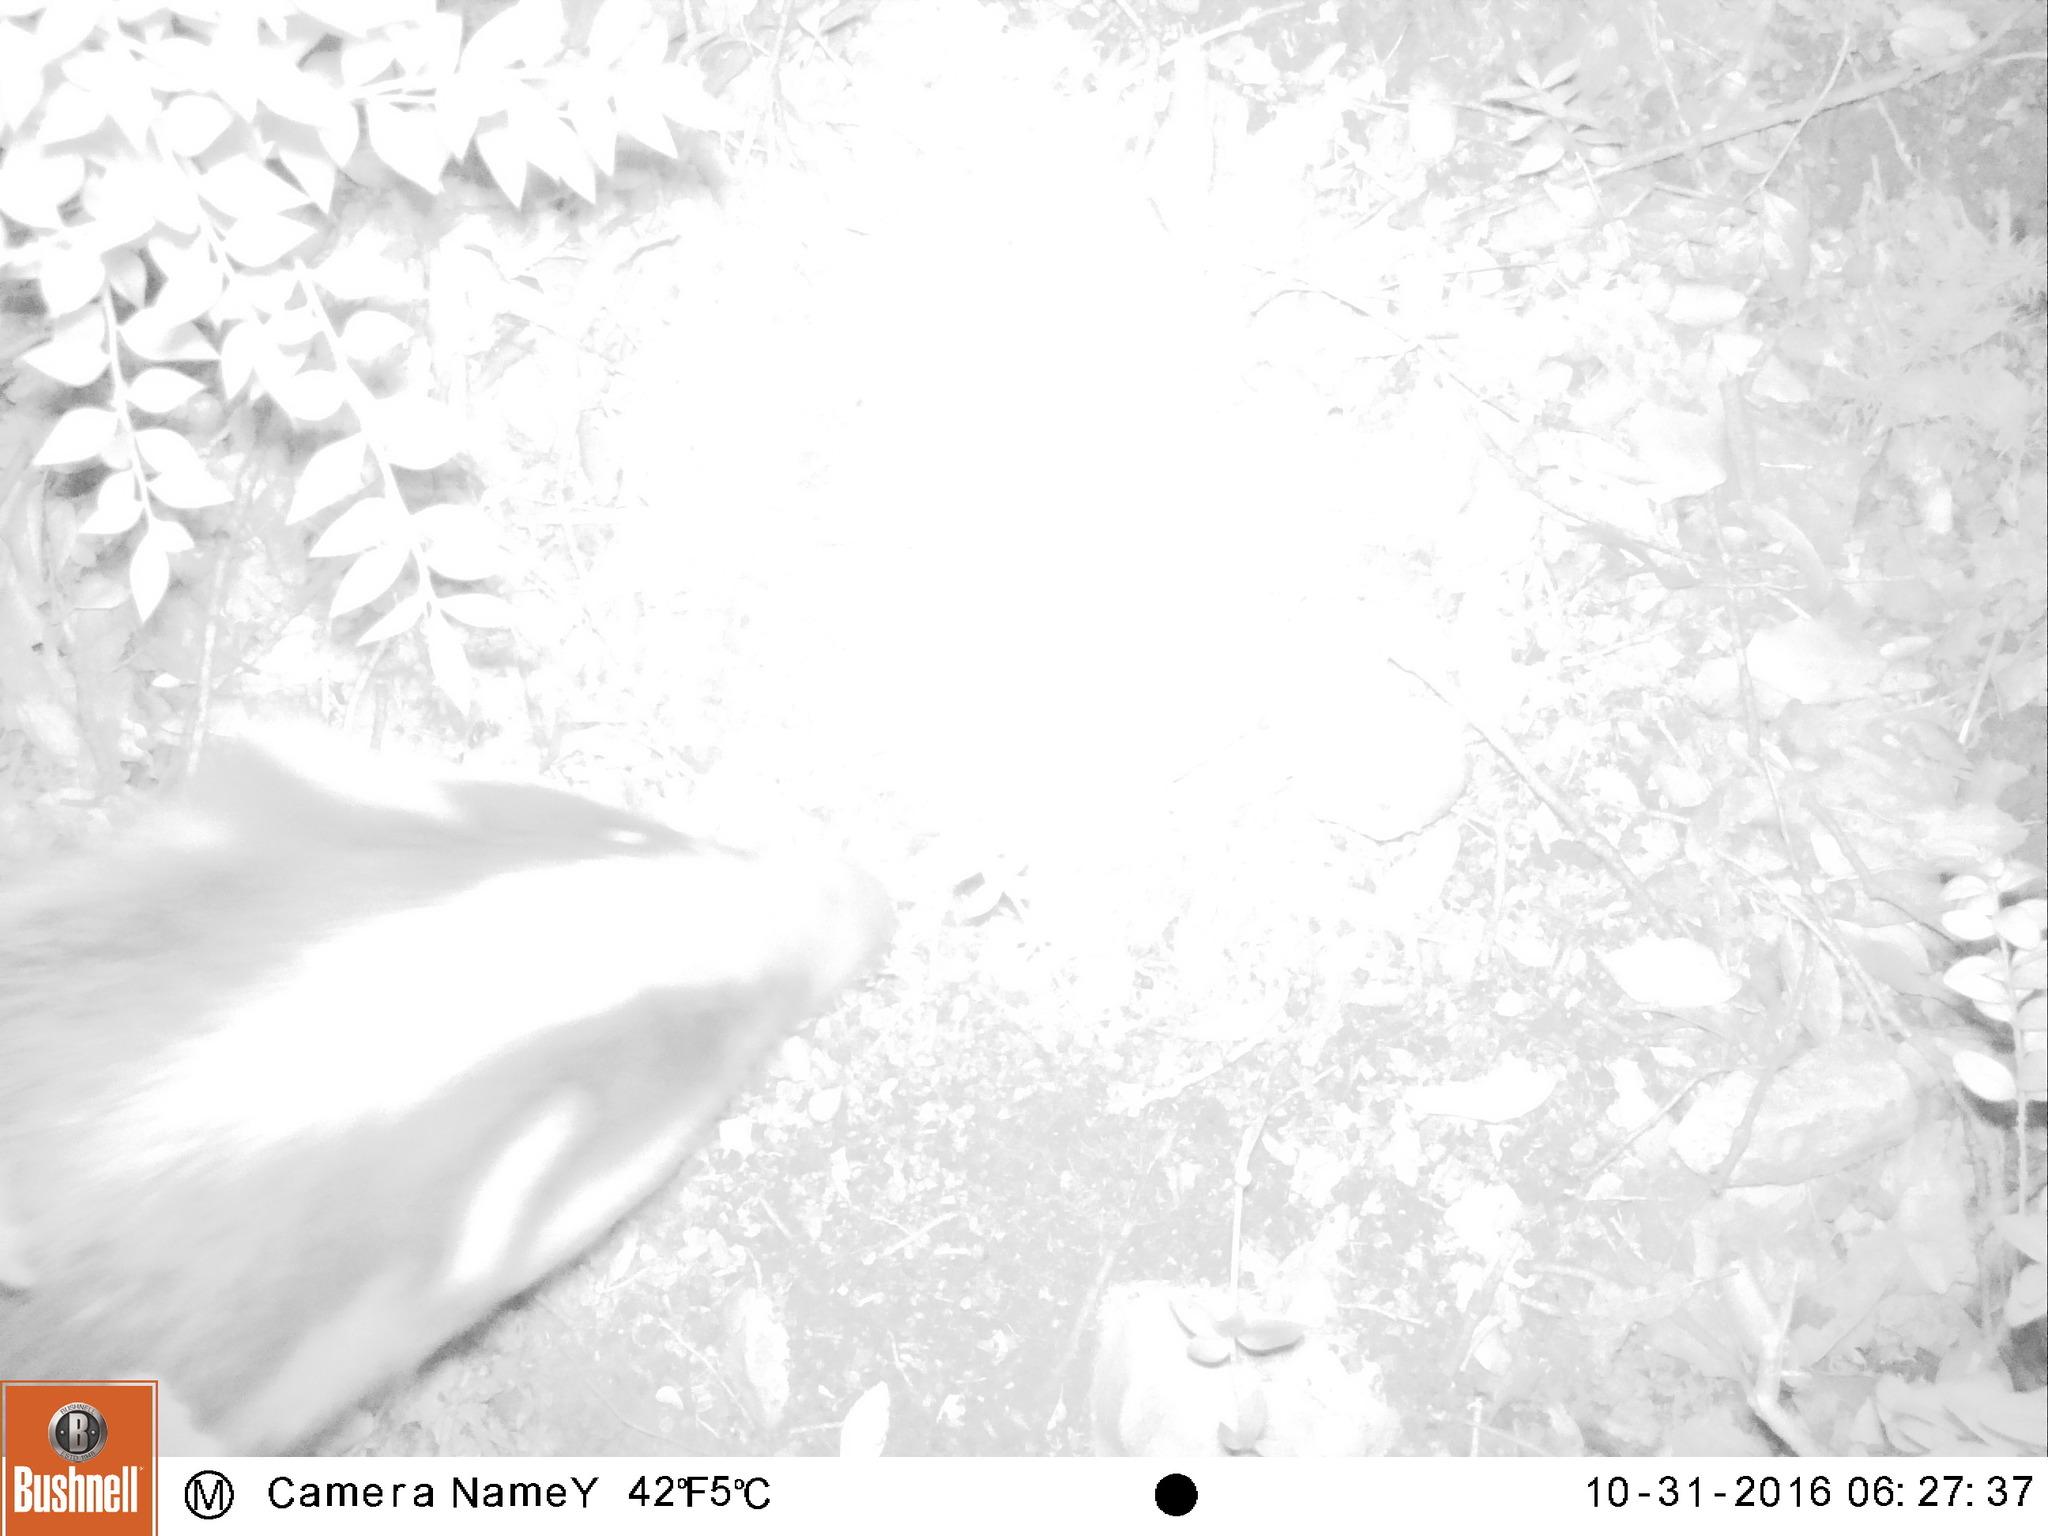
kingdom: Animalia
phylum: Chordata
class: Mammalia
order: Carnivora
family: Mustelidae
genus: Meles
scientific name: Meles meles
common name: Eurasian badger
